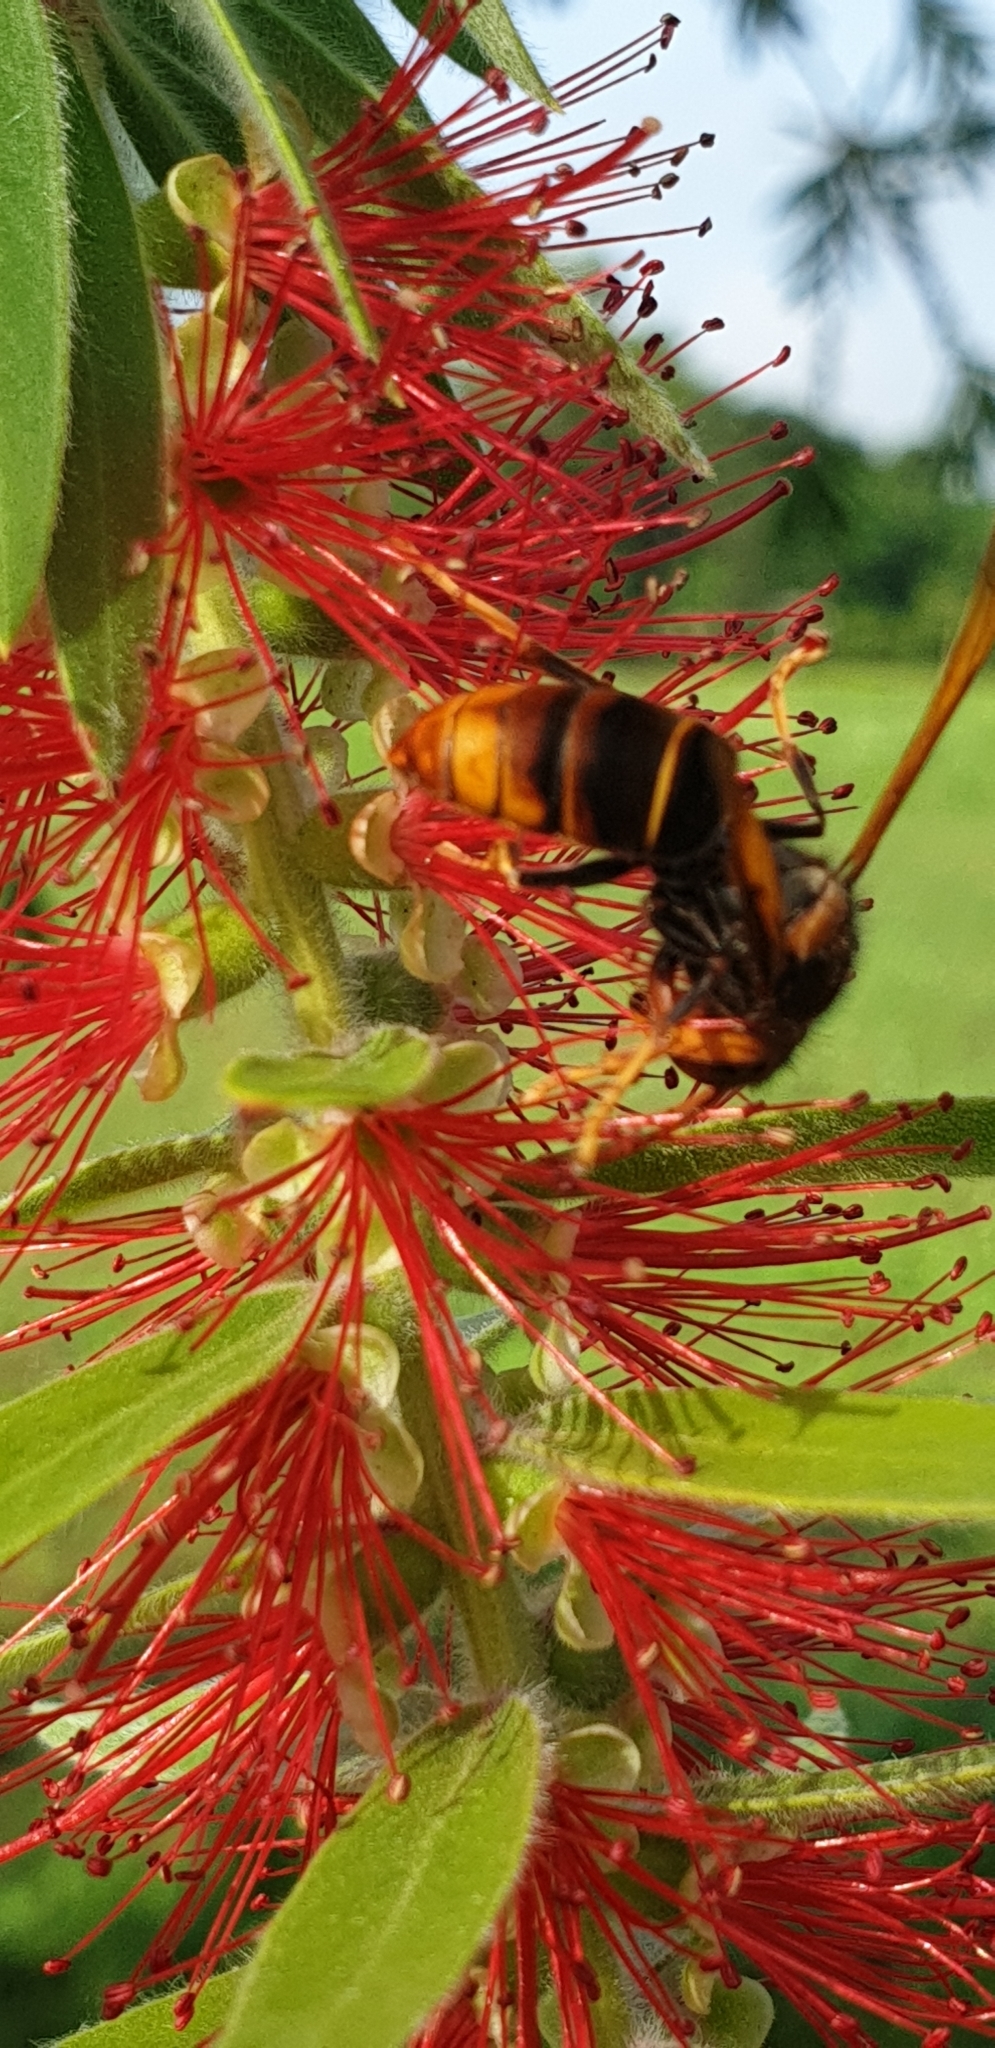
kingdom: Animalia
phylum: Arthropoda
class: Insecta
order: Hymenoptera
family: Vespidae
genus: Vespa
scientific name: Vespa velutina
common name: Asian hornet
